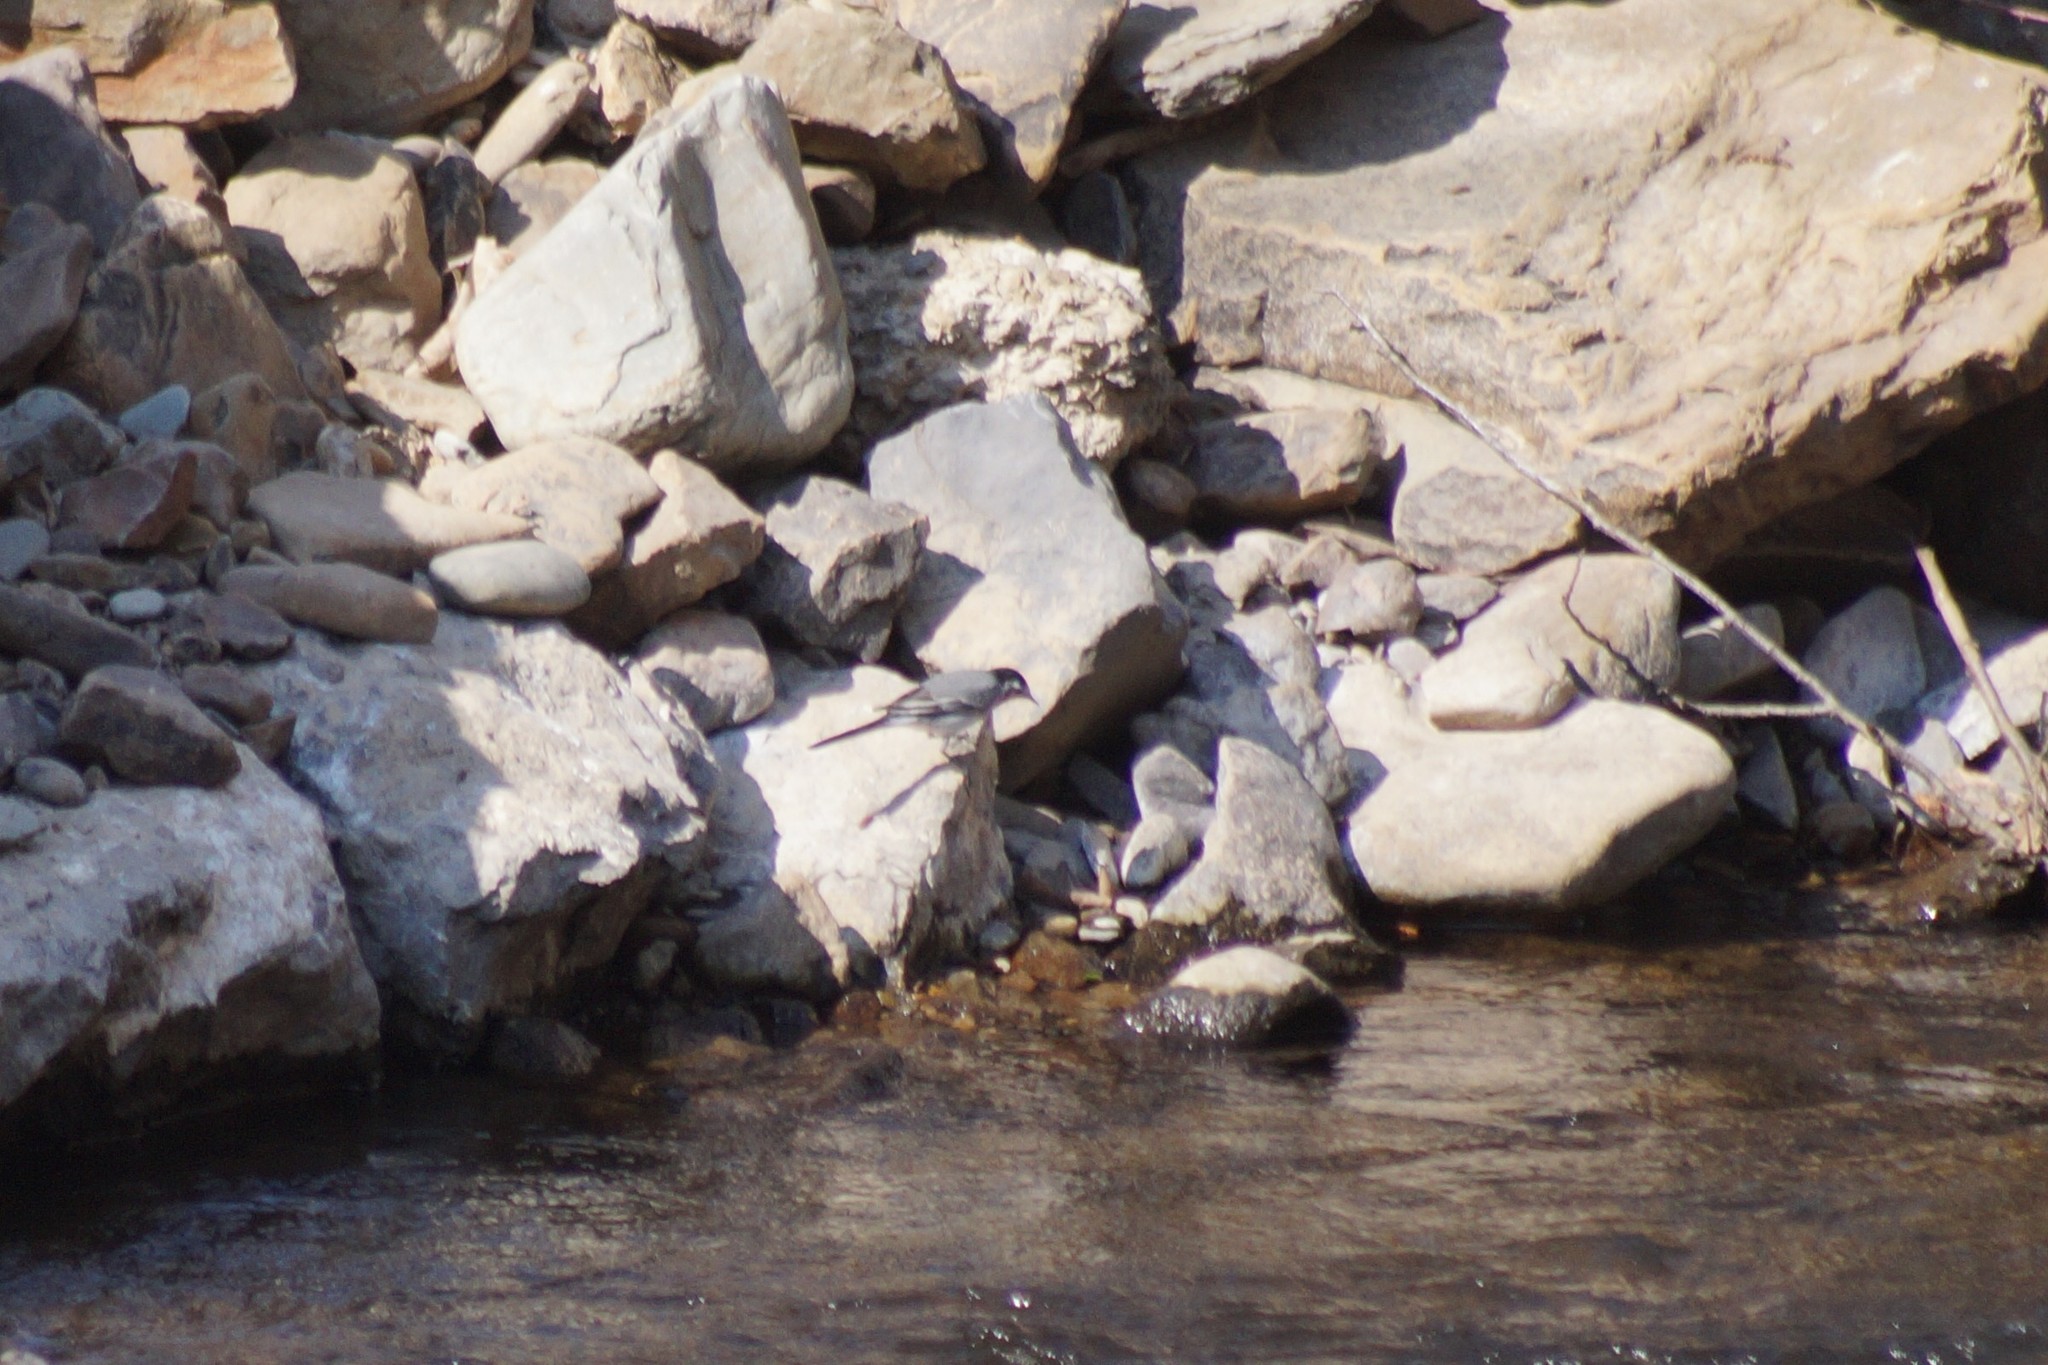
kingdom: Animalia
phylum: Chordata
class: Aves
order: Passeriformes
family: Motacillidae
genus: Motacilla
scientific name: Motacilla alba
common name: White wagtail
